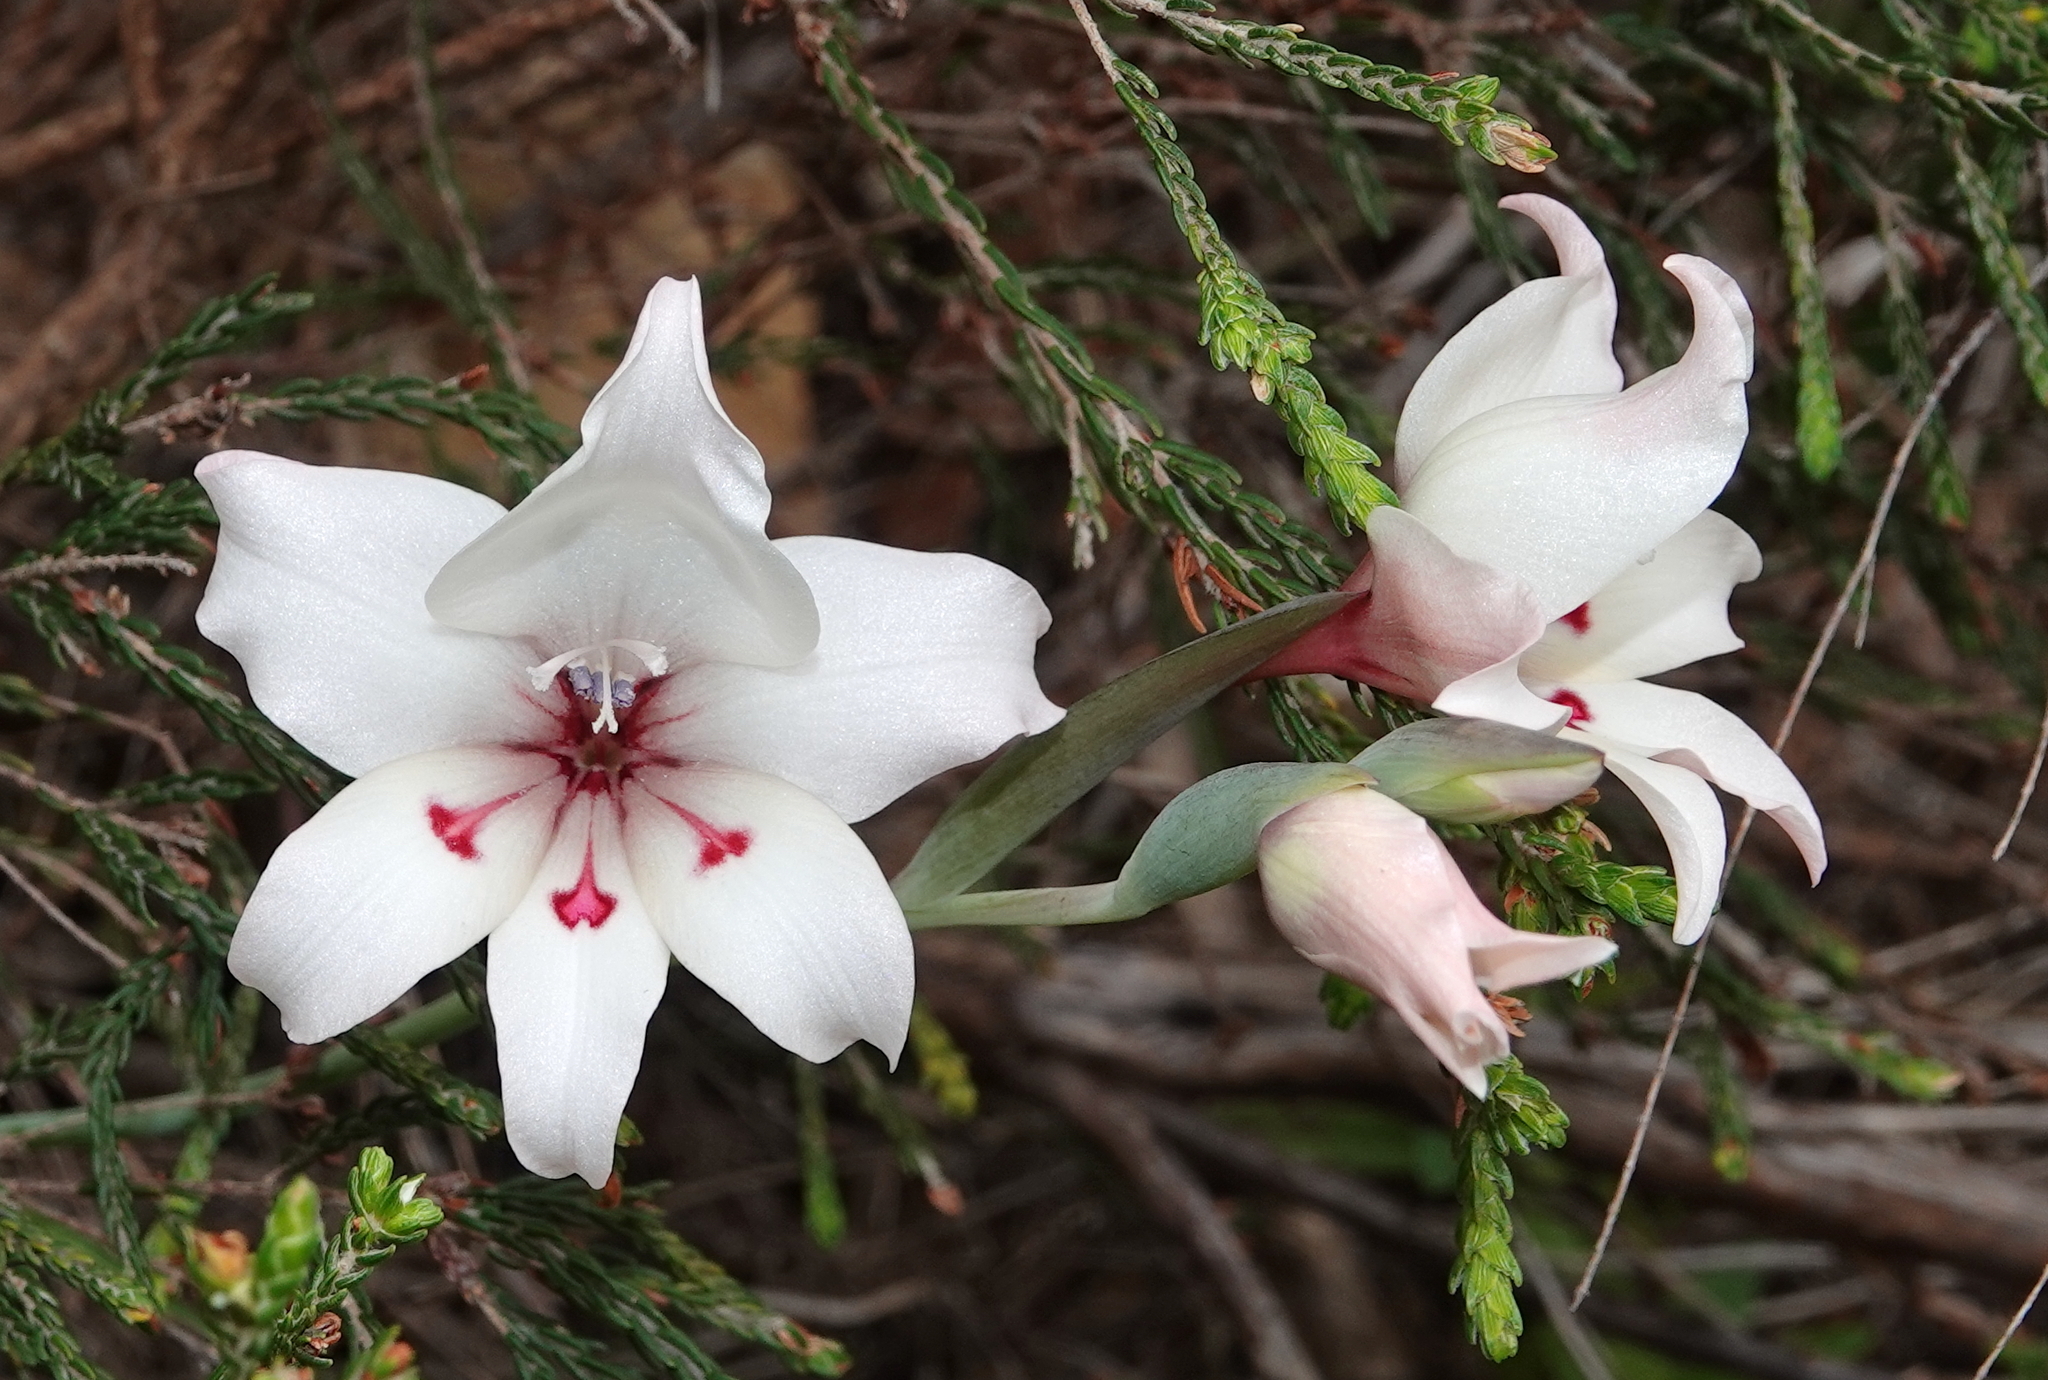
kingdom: Plantae
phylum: Tracheophyta
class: Liliopsida
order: Asparagales
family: Iridaceae
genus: Gladiolus
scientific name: Gladiolus carneus
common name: Painted-lady
